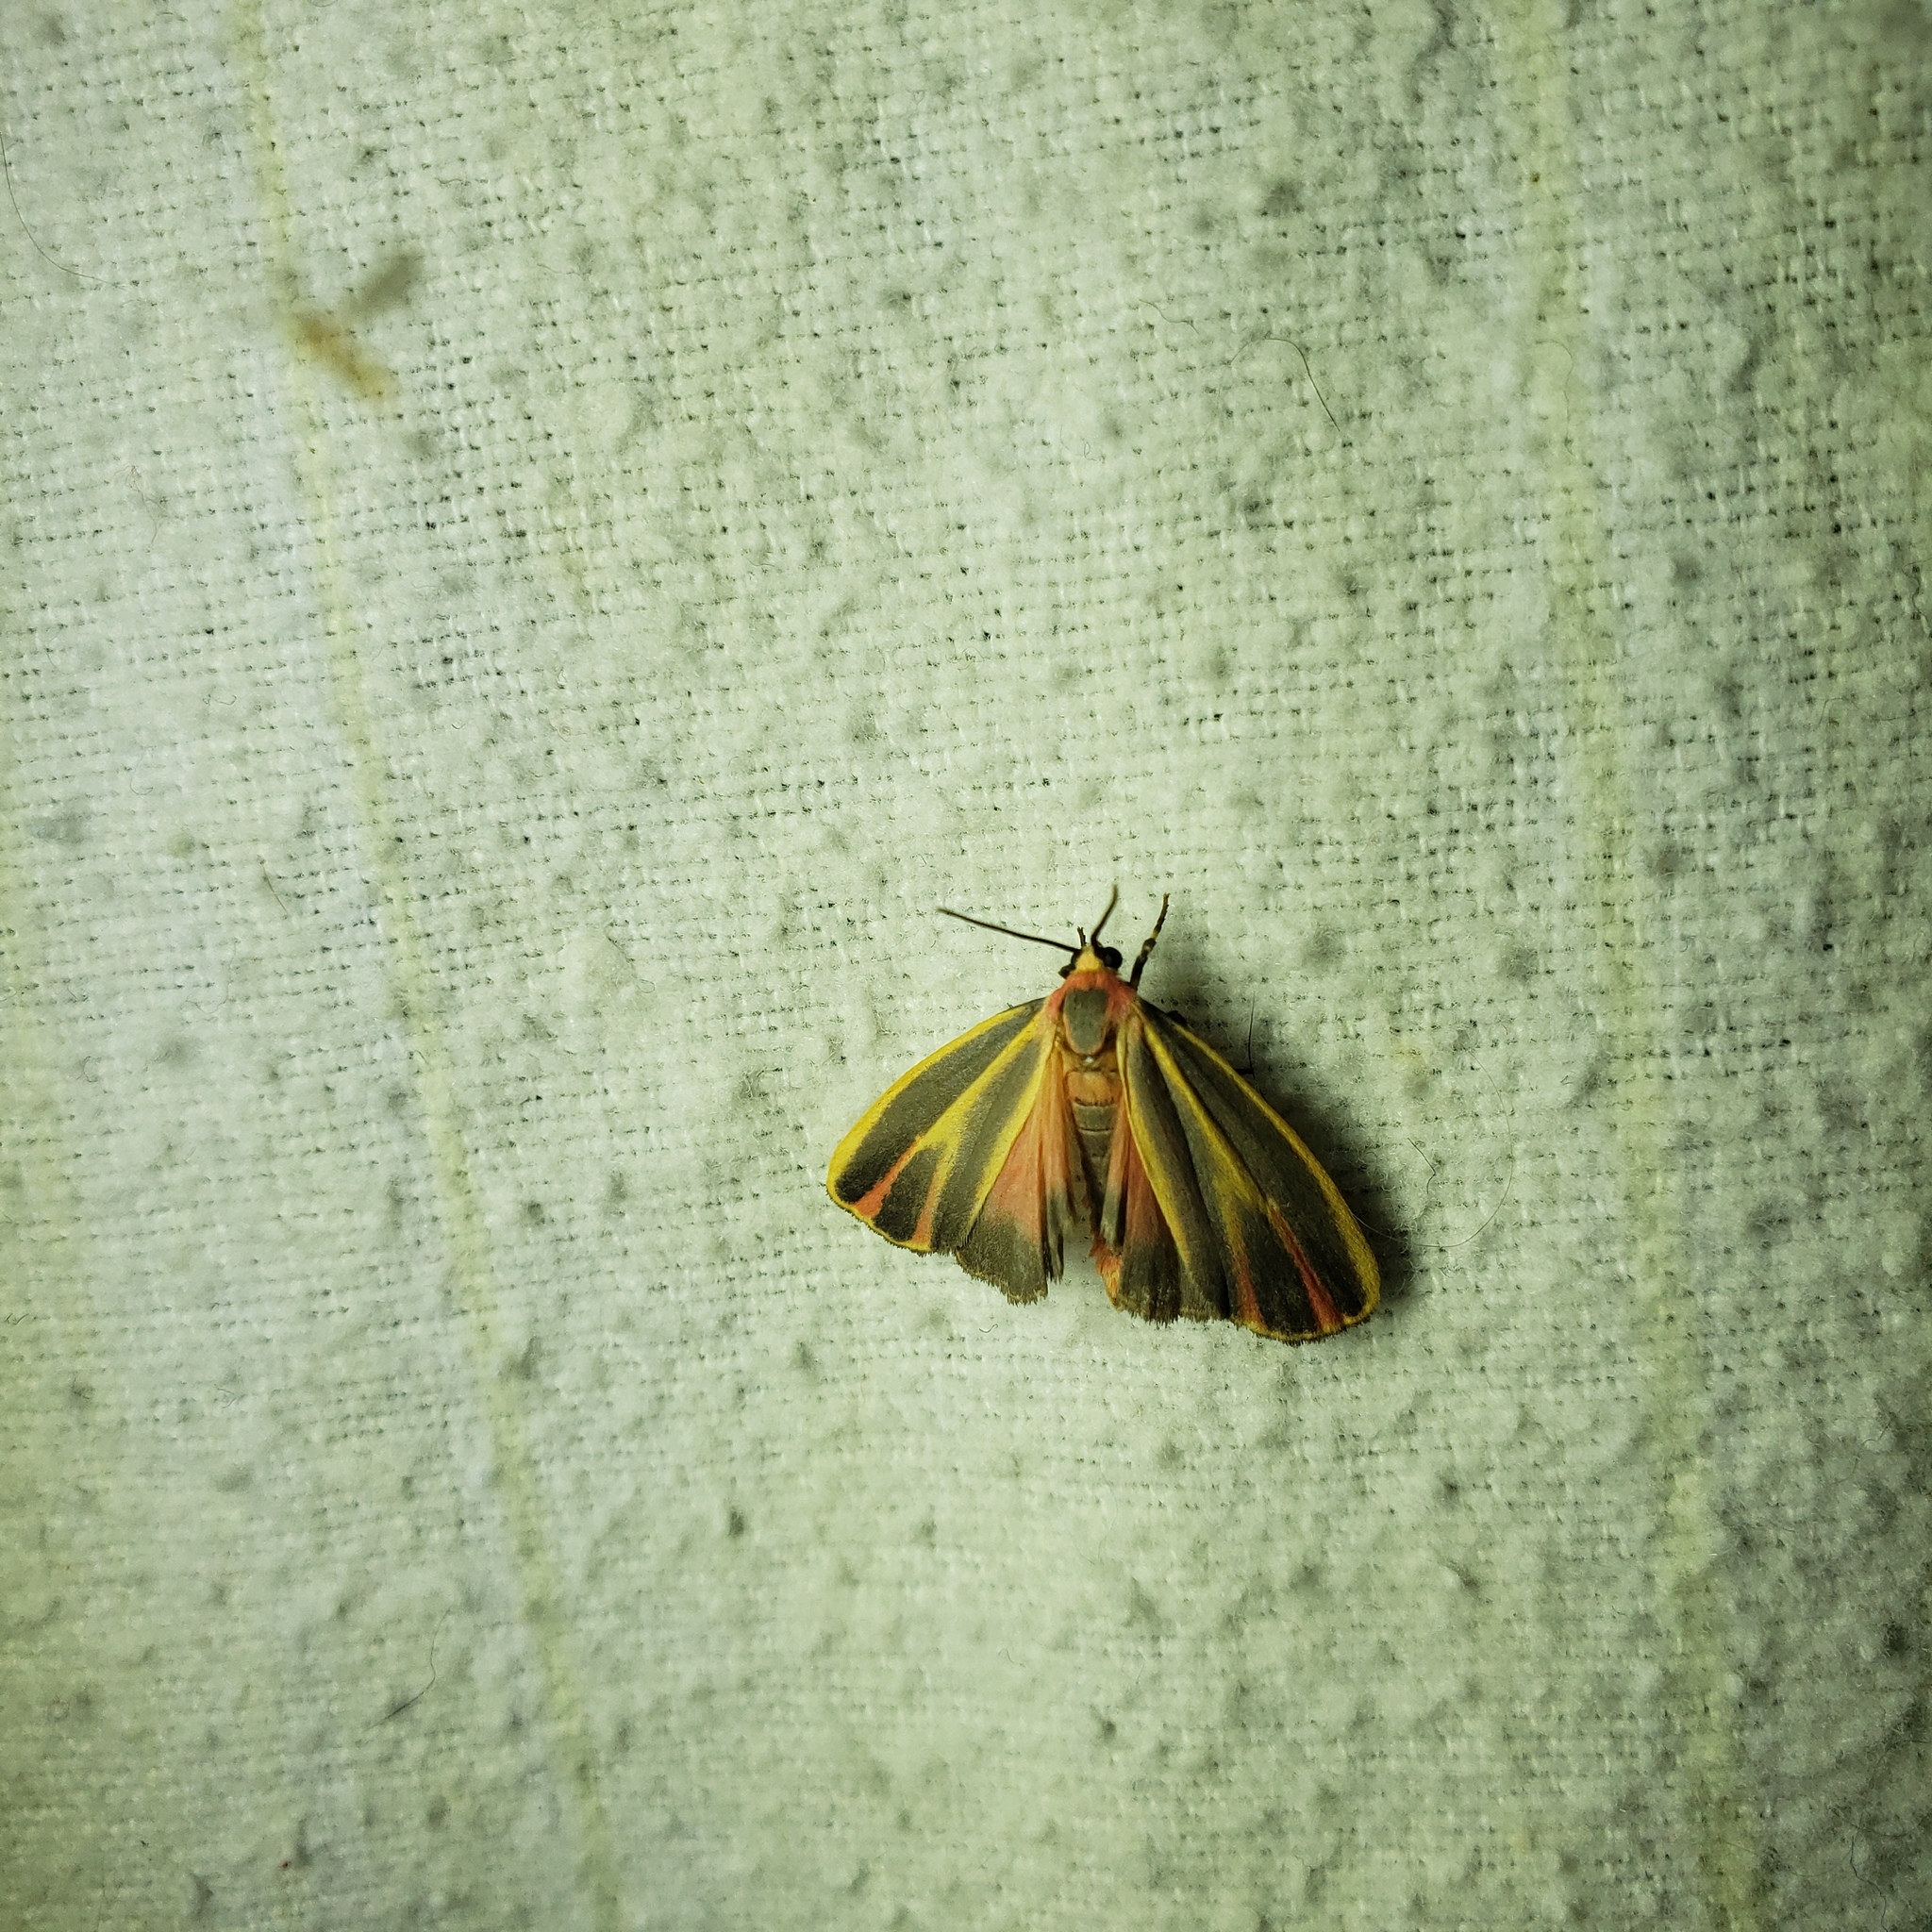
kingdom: Animalia
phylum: Arthropoda
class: Insecta
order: Lepidoptera
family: Erebidae
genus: Hypoprepia
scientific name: Hypoprepia fucosa
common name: Painted lichen moth
